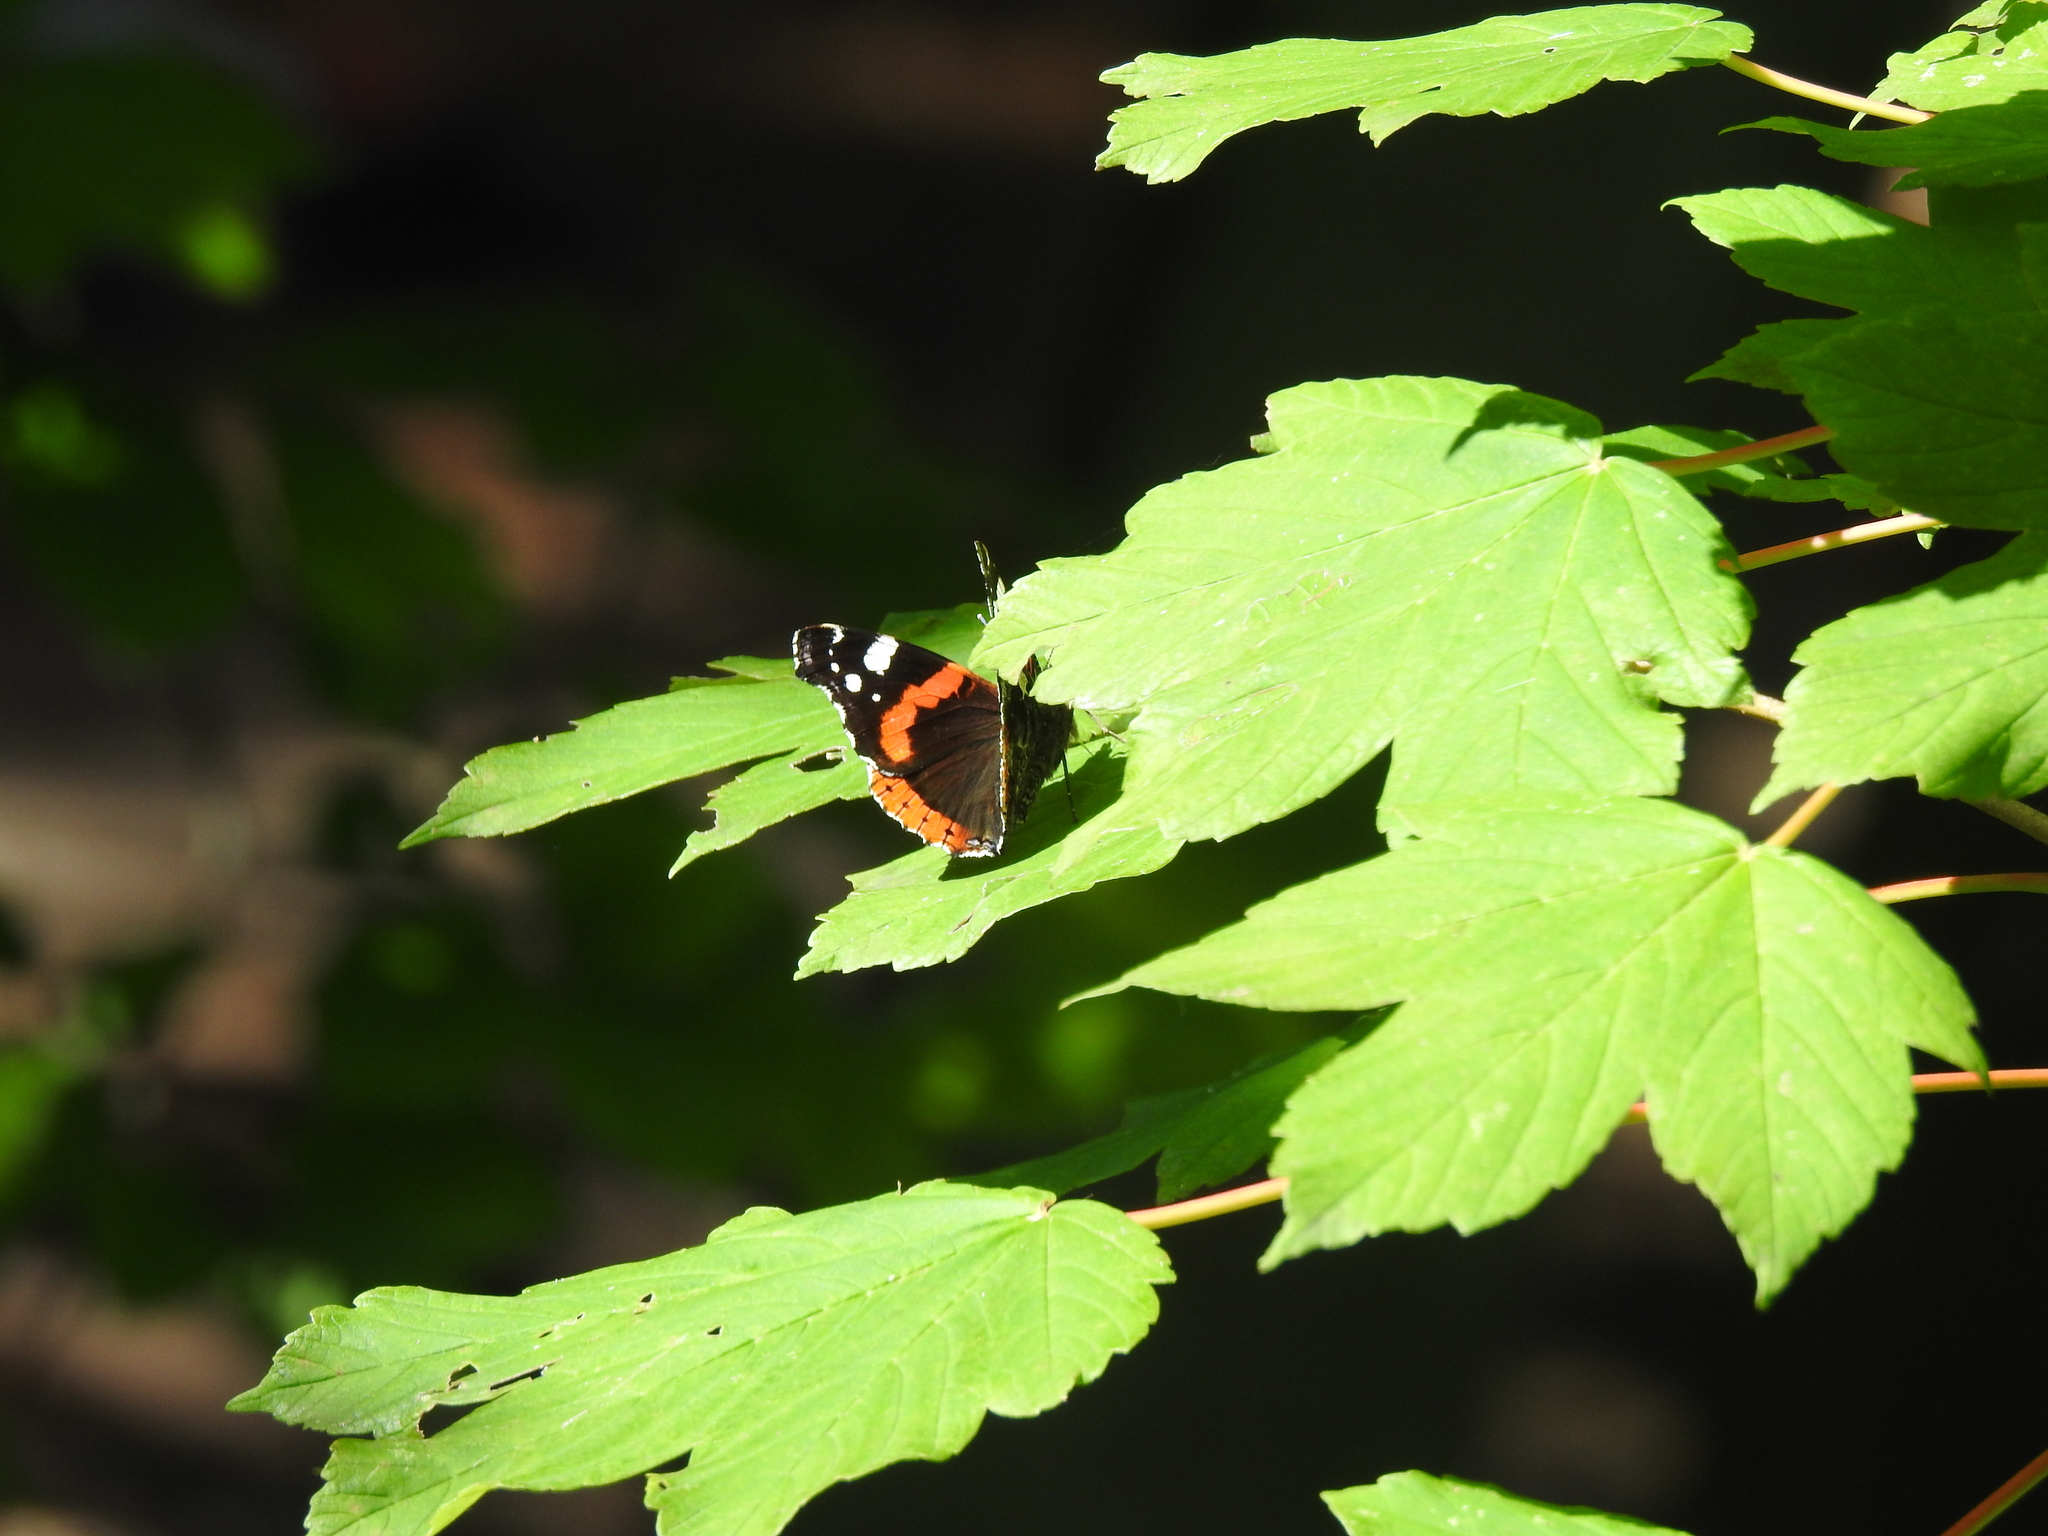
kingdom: Animalia
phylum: Arthropoda
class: Insecta
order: Lepidoptera
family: Nymphalidae
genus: Vanessa
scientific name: Vanessa atalanta
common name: Red admiral
